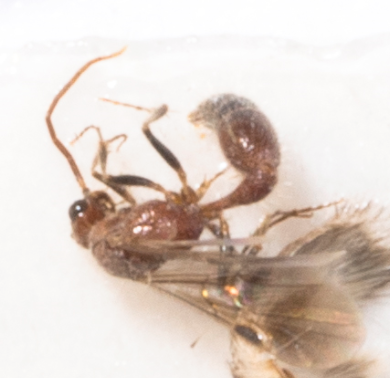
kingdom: Animalia
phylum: Arthropoda
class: Insecta
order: Hymenoptera
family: Chyphotidae
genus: Chyphotes
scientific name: Chyphotes
